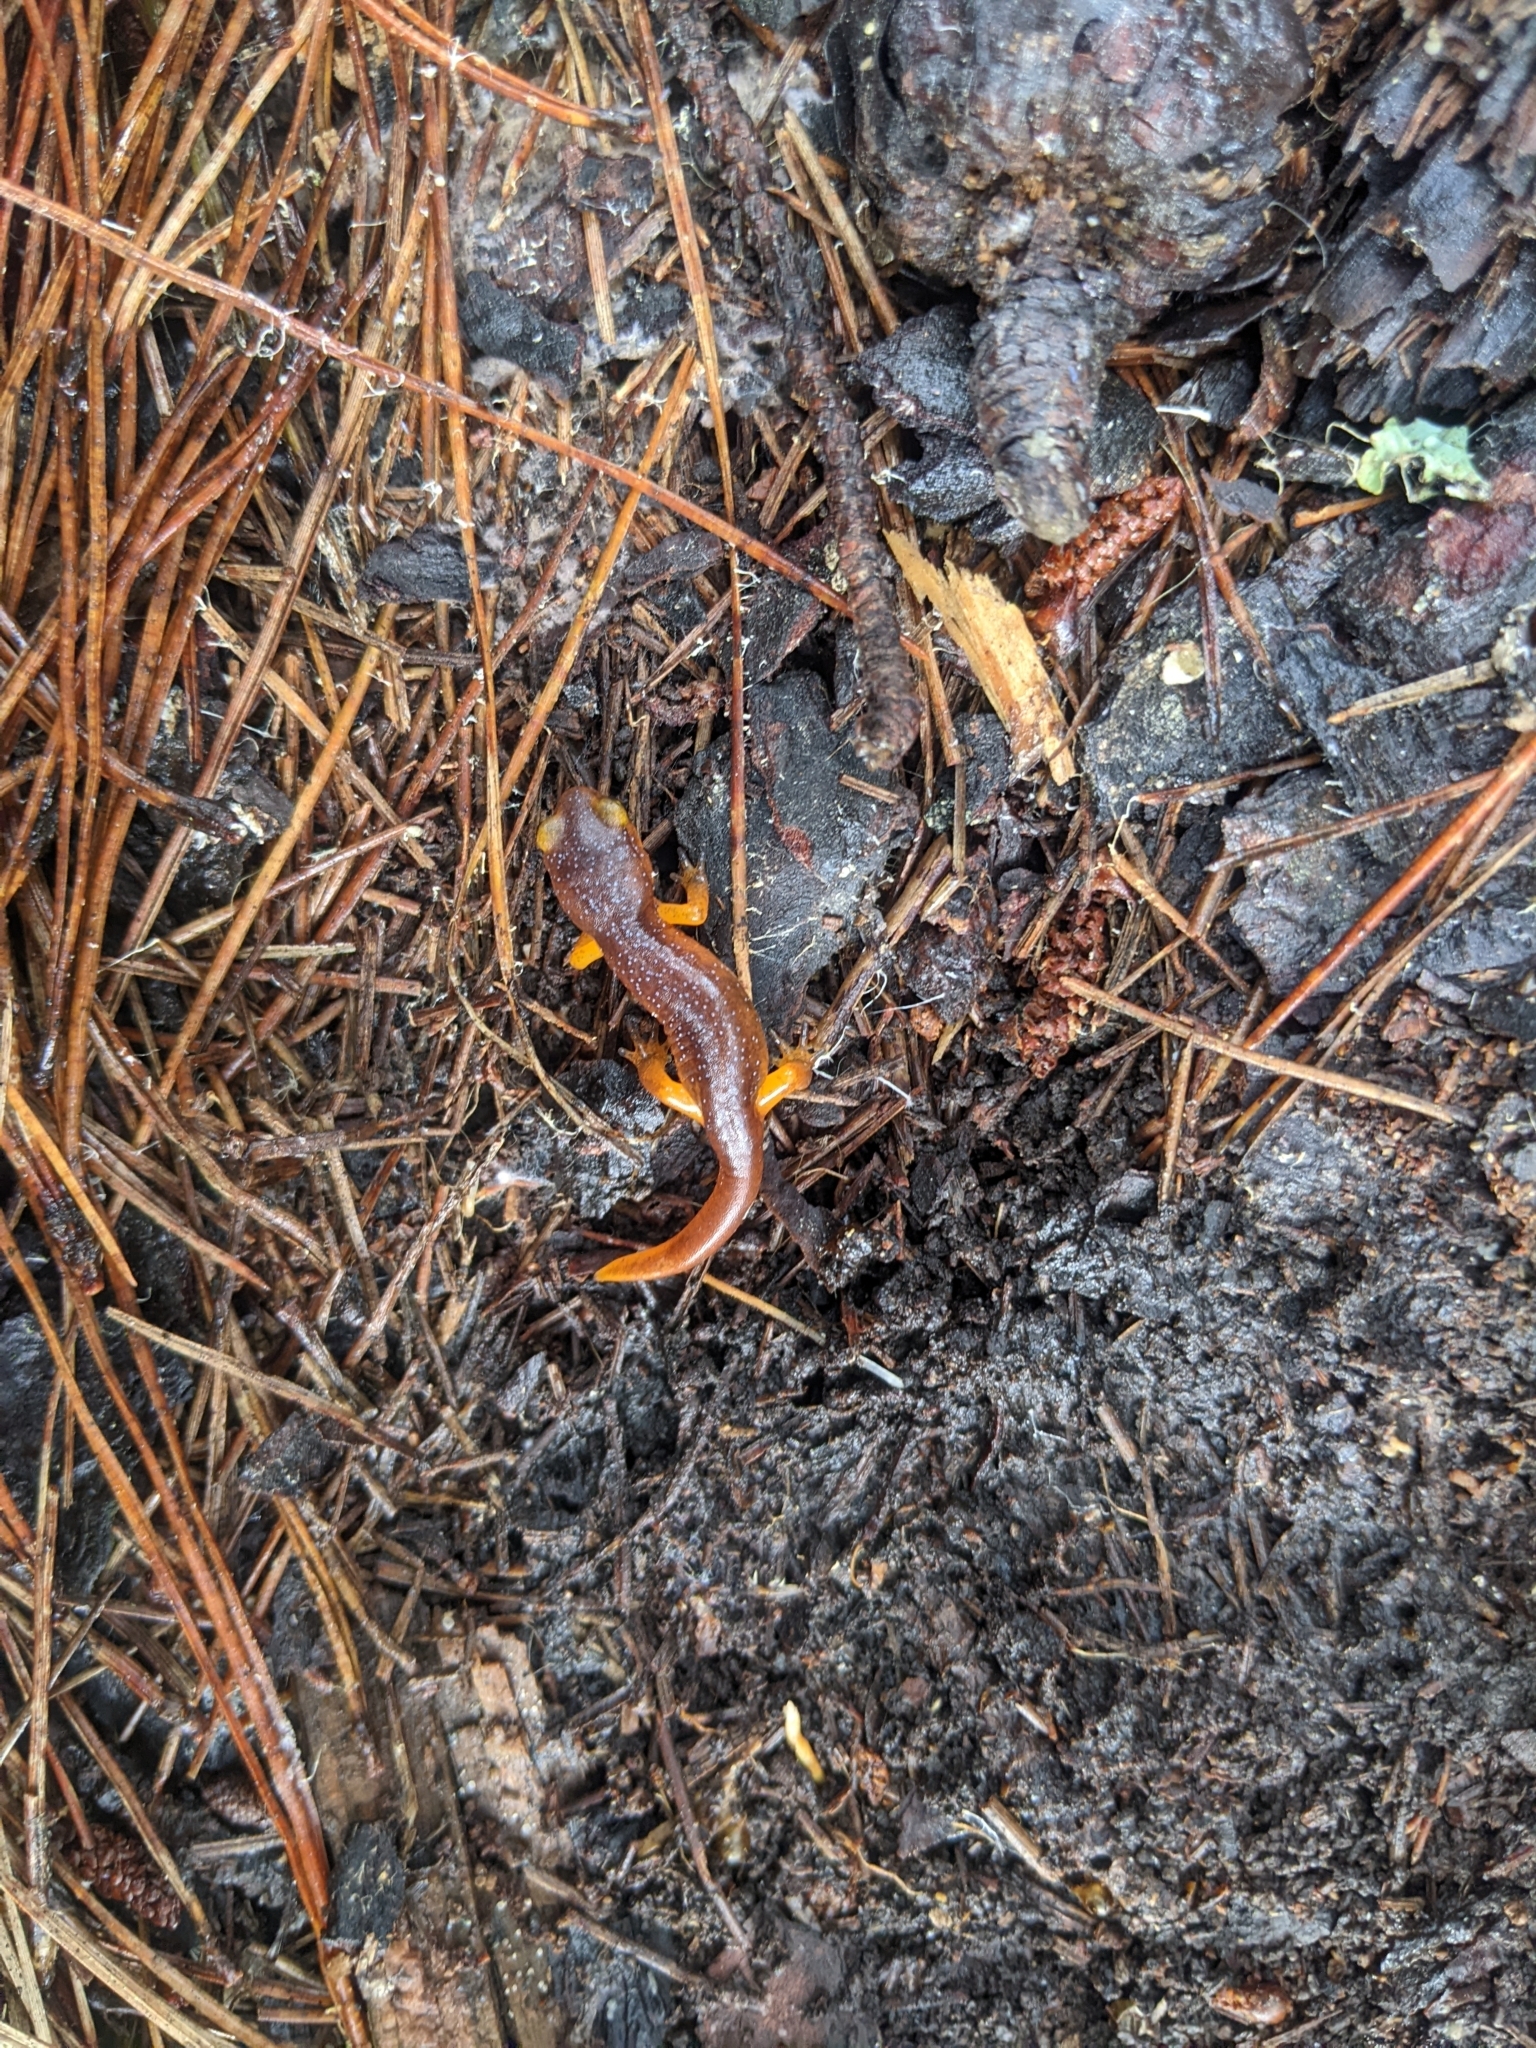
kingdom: Animalia
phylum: Chordata
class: Amphibia
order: Caudata
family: Plethodontidae
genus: Ensatina
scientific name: Ensatina eschscholtzii
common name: Ensatina
